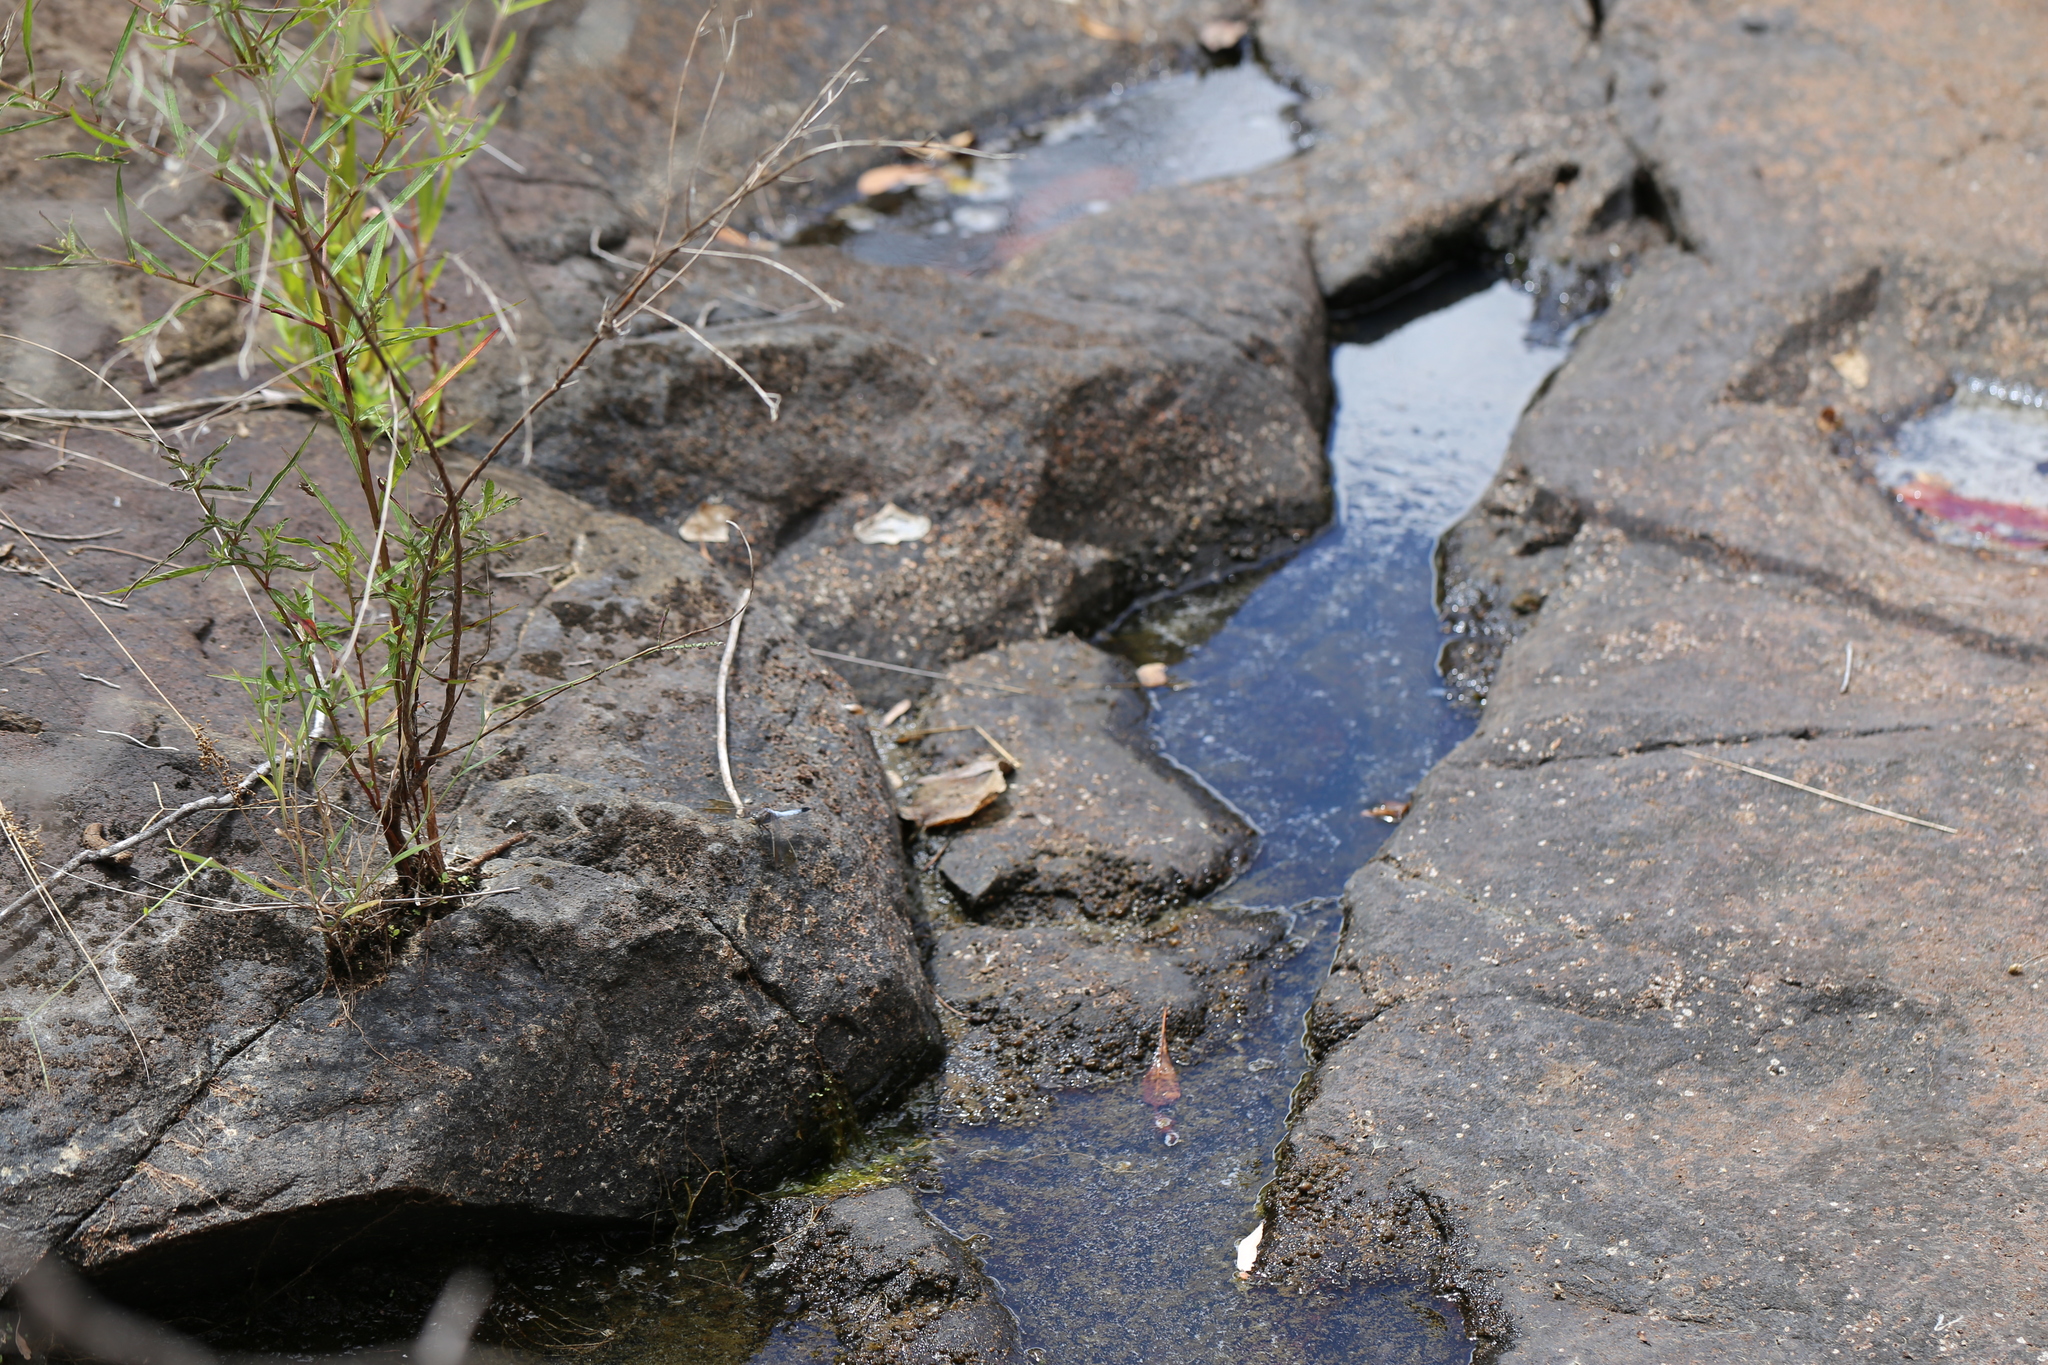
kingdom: Animalia
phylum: Arthropoda
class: Insecta
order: Odonata
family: Libellulidae
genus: Orthetrum
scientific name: Orthetrum caledonicum
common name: Blue skimmer
